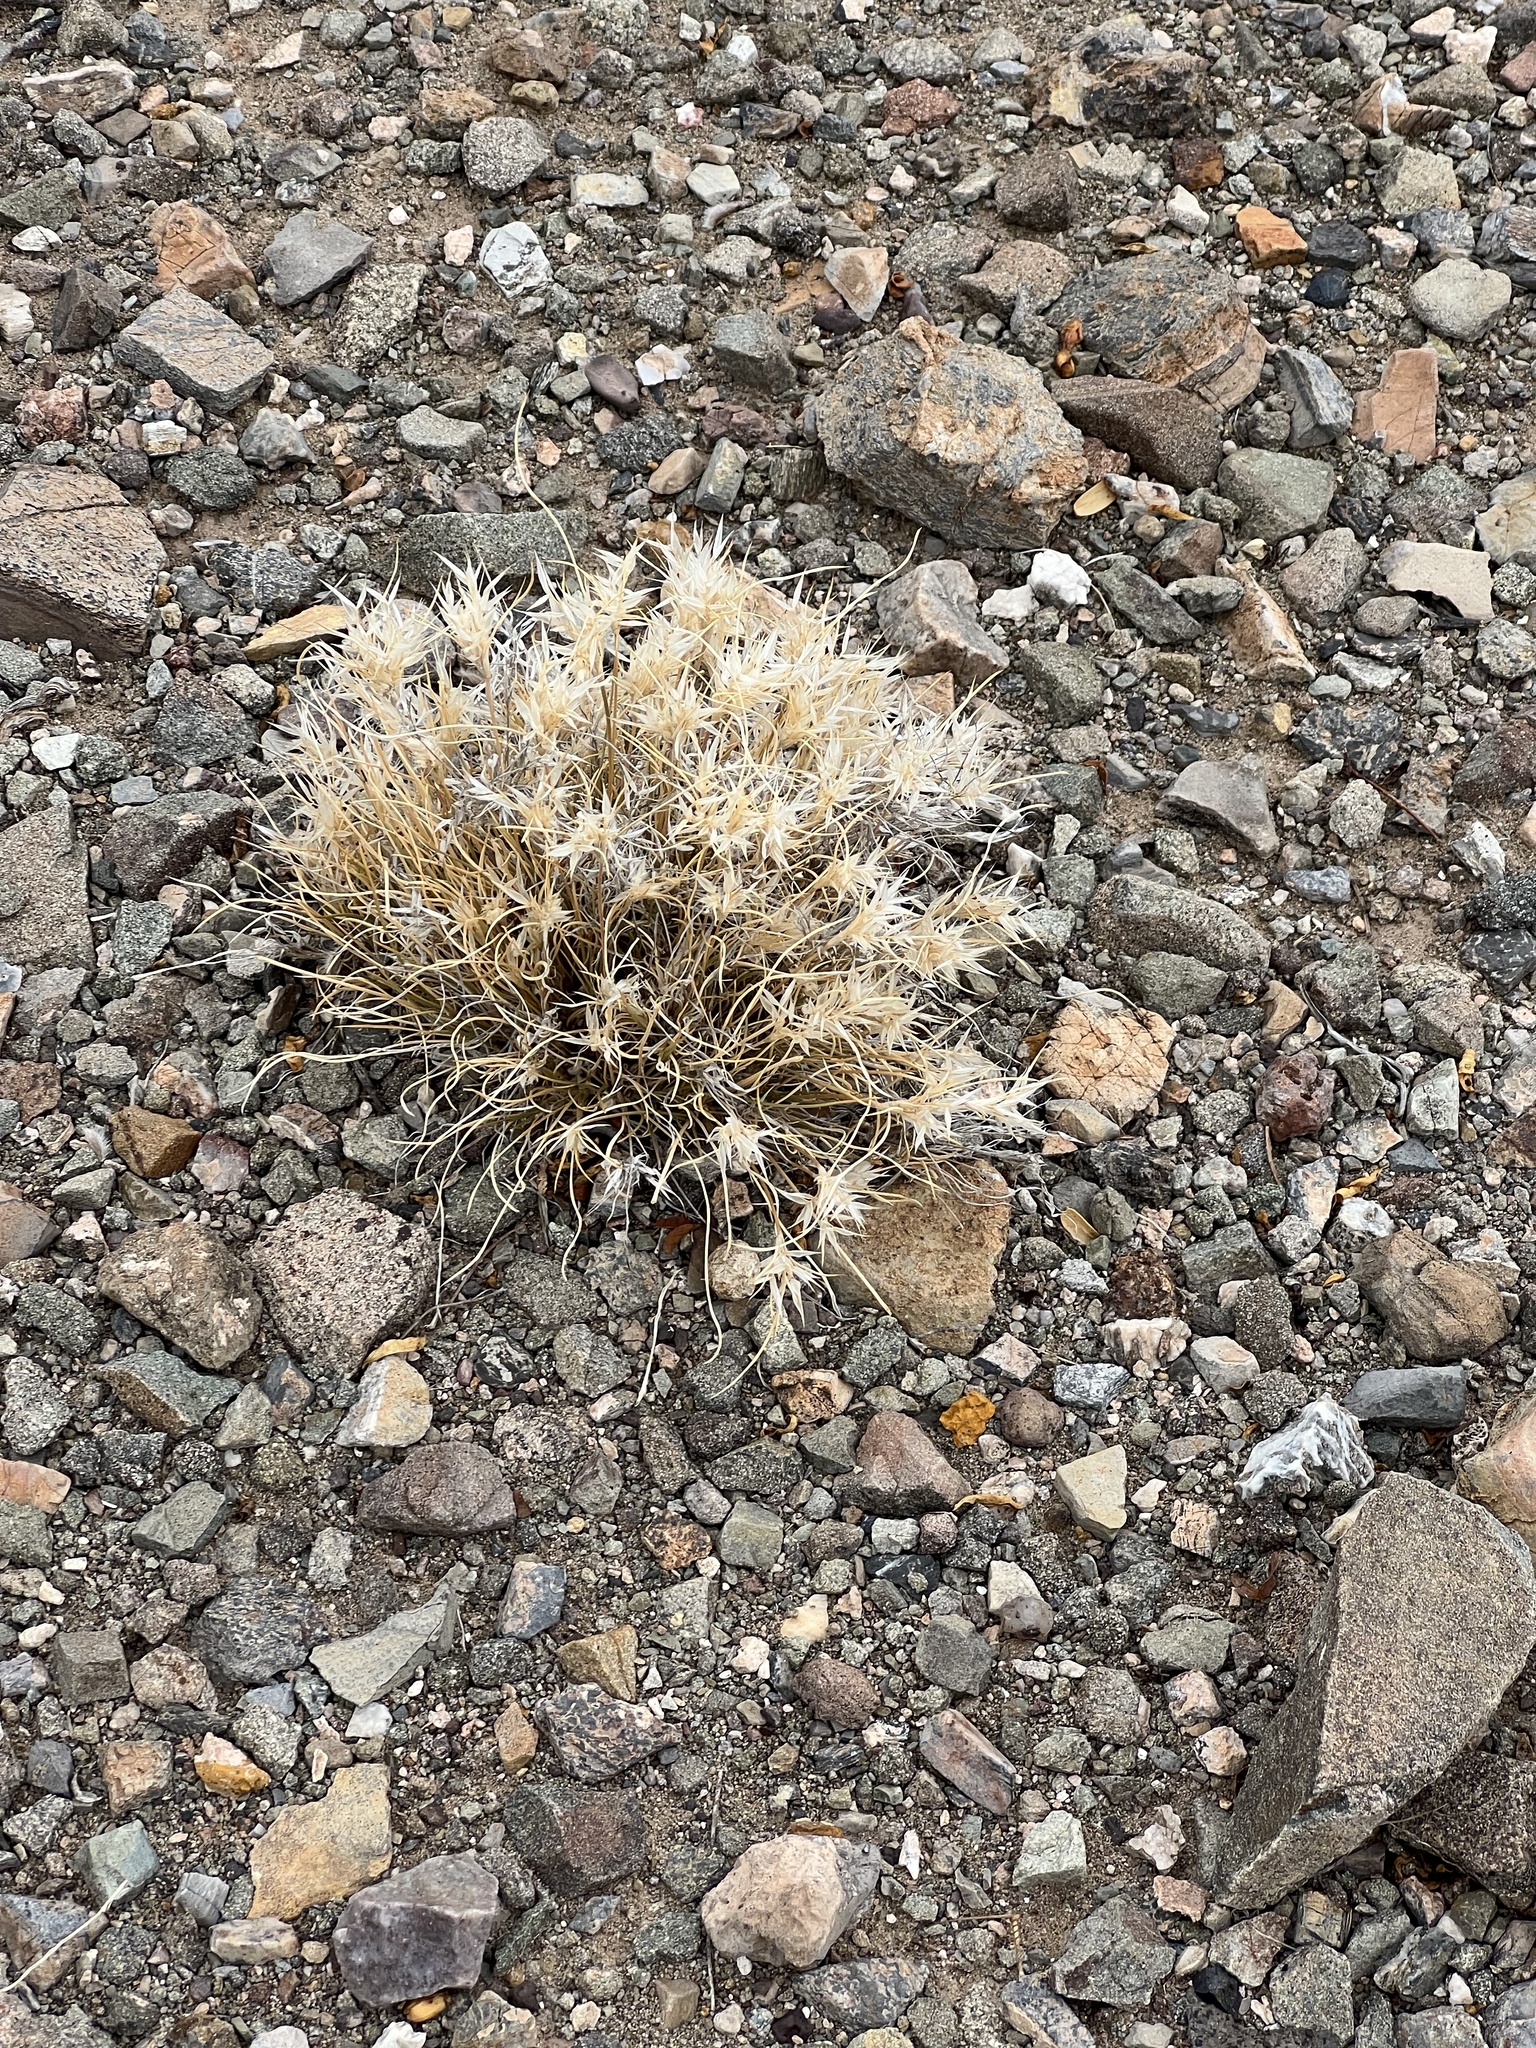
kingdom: Plantae
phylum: Tracheophyta
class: Liliopsida
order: Poales
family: Poaceae
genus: Dasyochloa
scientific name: Dasyochloa pulchella
